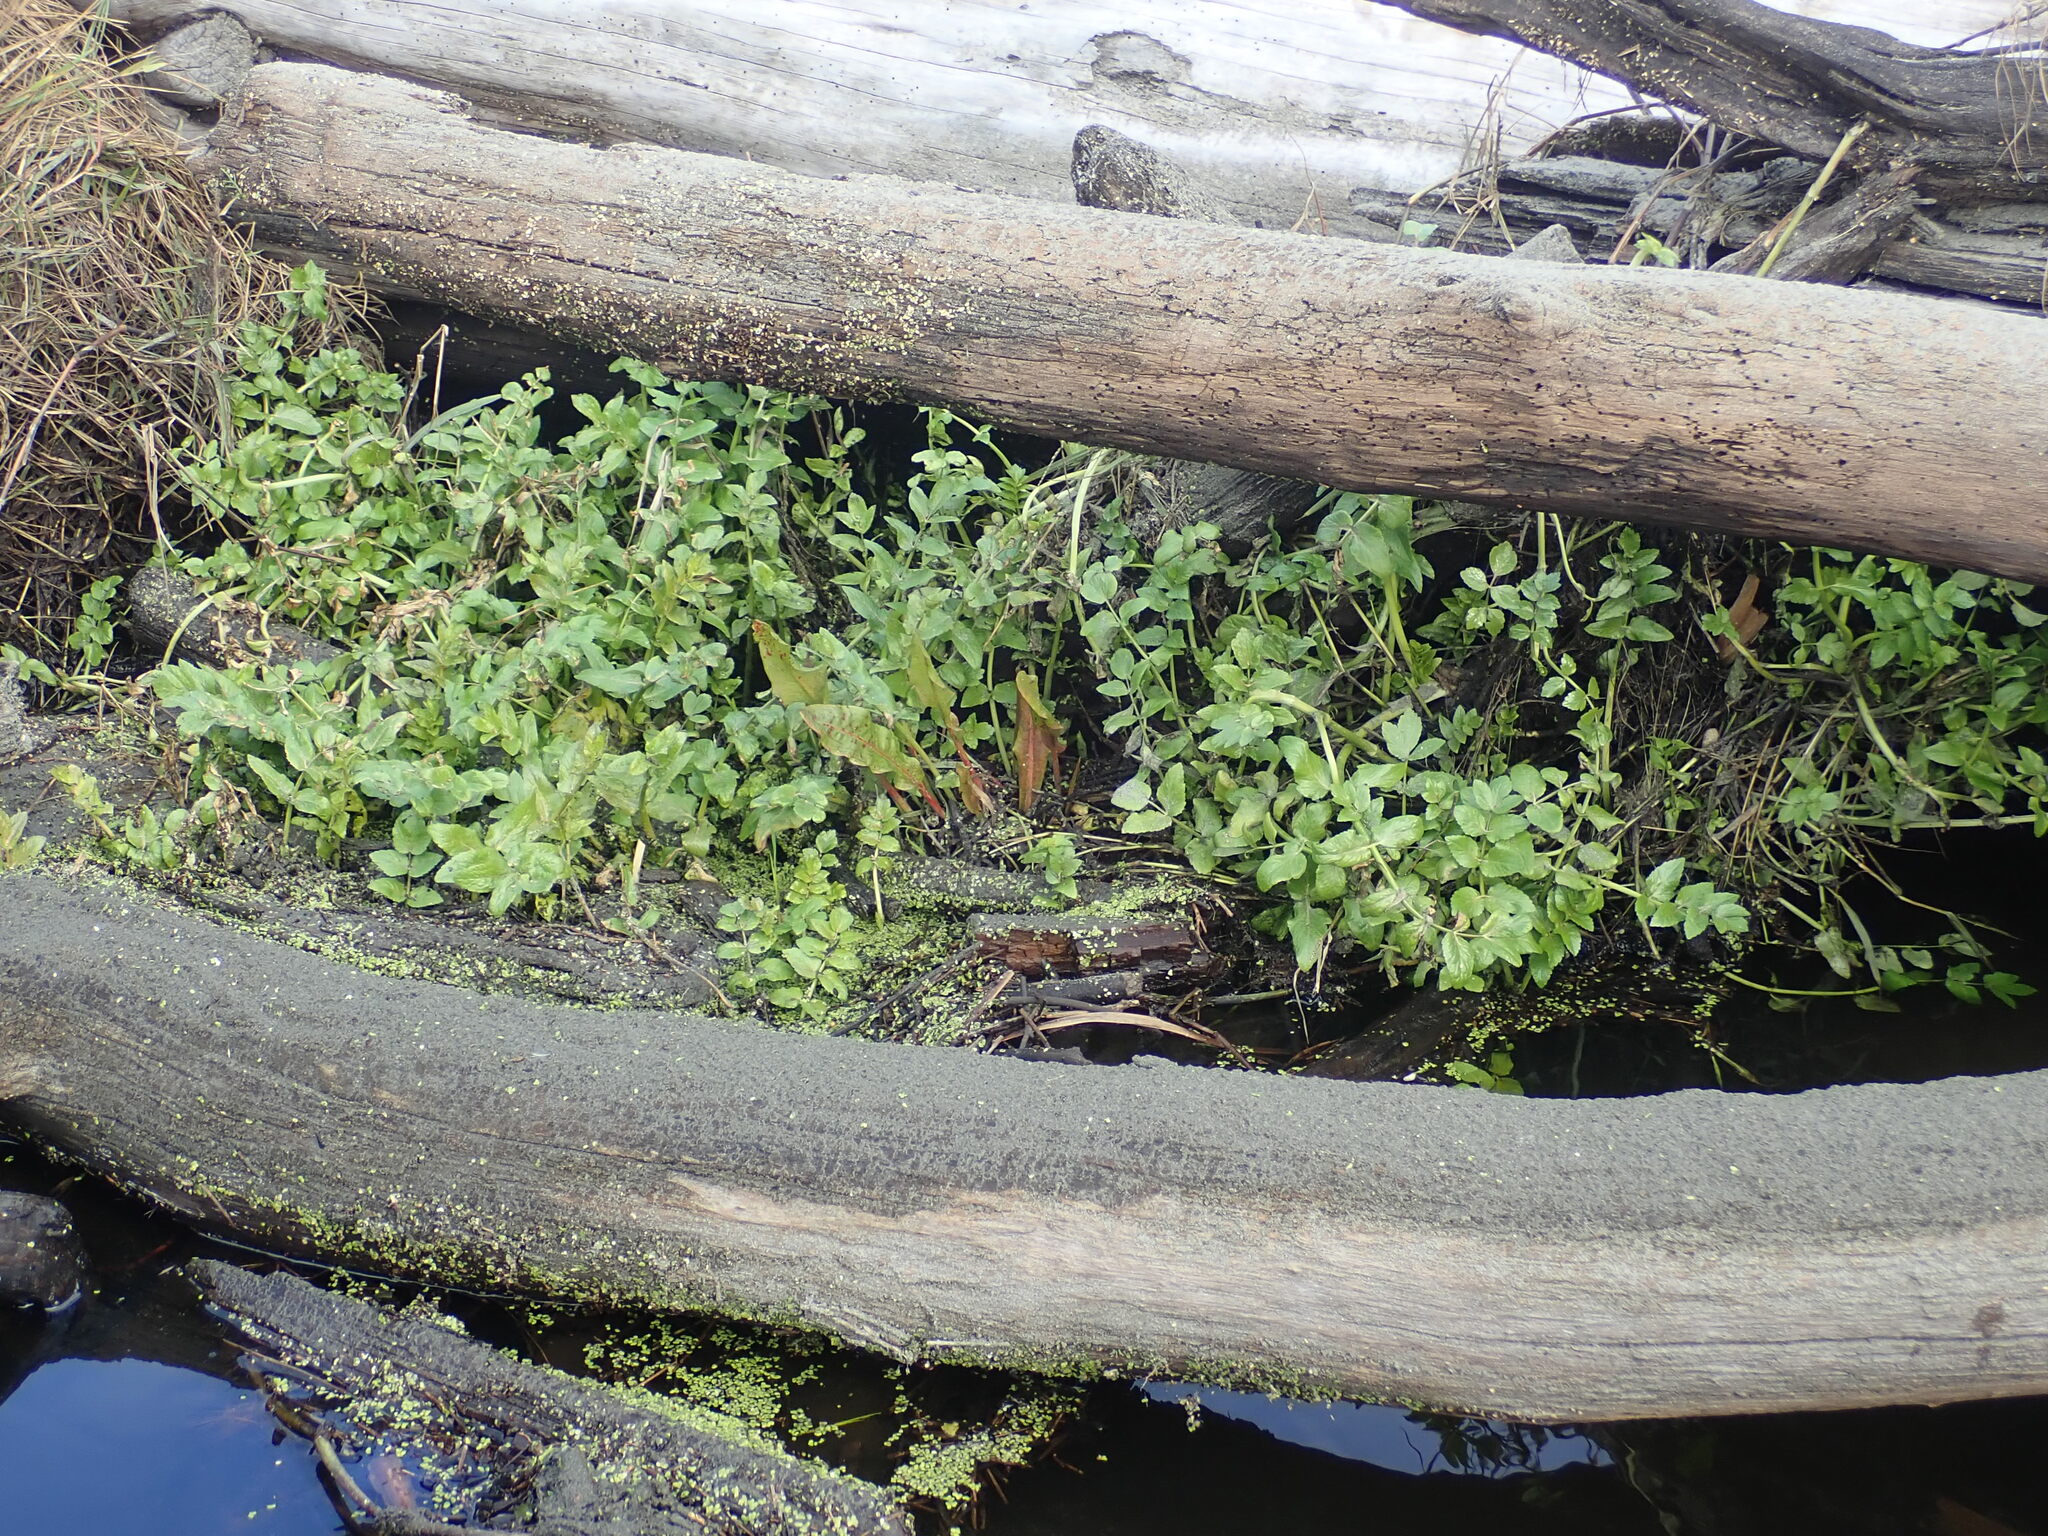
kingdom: Plantae
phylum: Tracheophyta
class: Magnoliopsida
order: Apiales
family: Apiaceae
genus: Helosciadium
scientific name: Helosciadium nodiflorum
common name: Fool's-watercress
